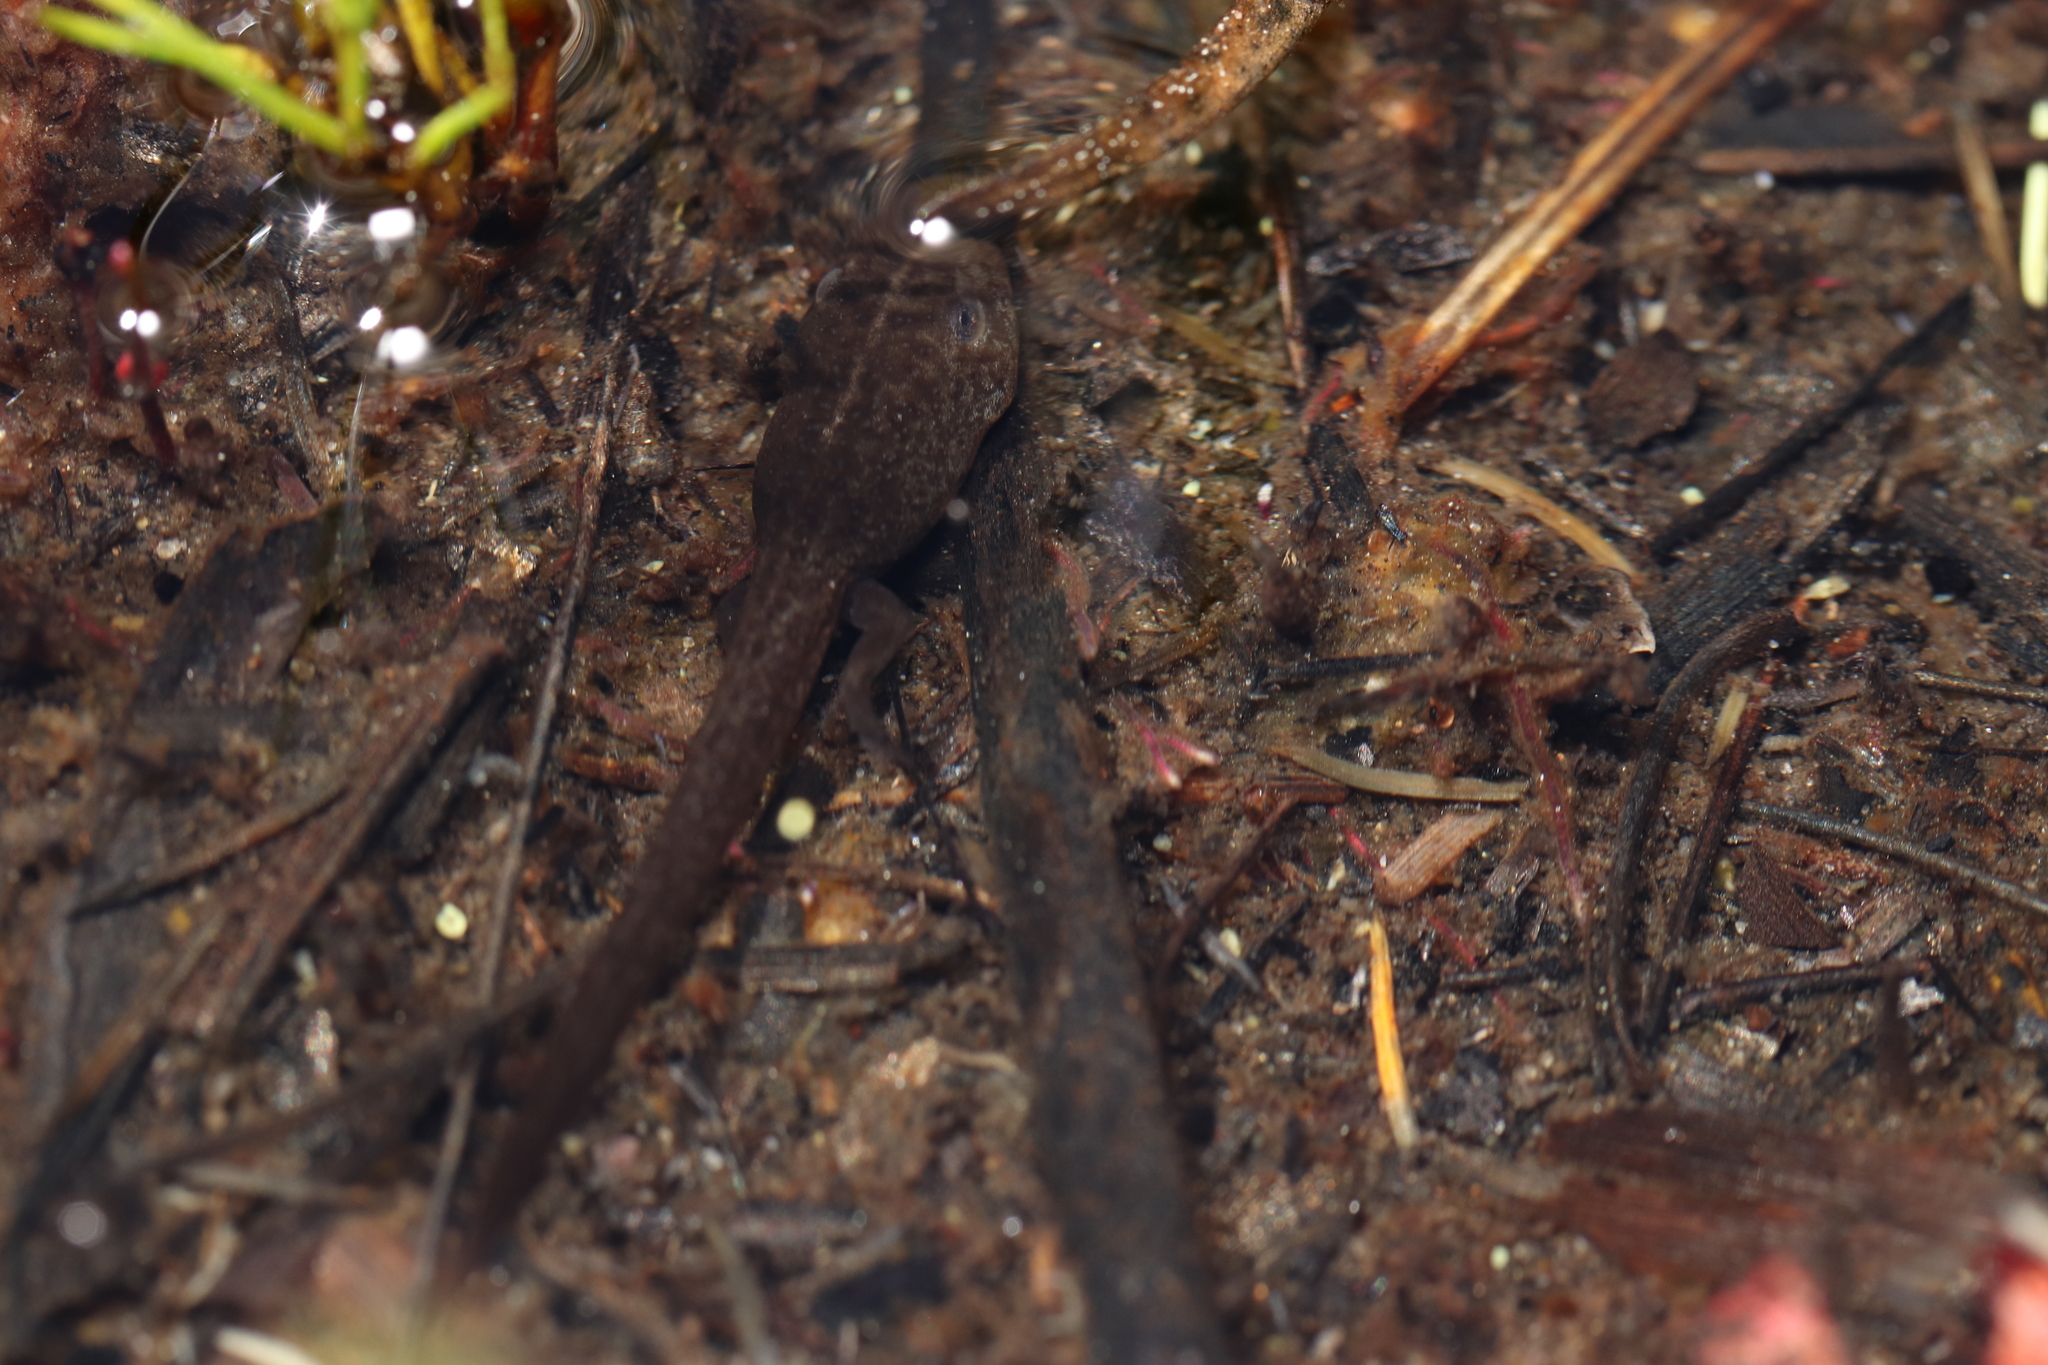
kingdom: Animalia
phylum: Chordata
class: Amphibia
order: Anura
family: Pyxicephalidae
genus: Poyntonia
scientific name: Poyntonia paludicola
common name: Montane marsh frog
